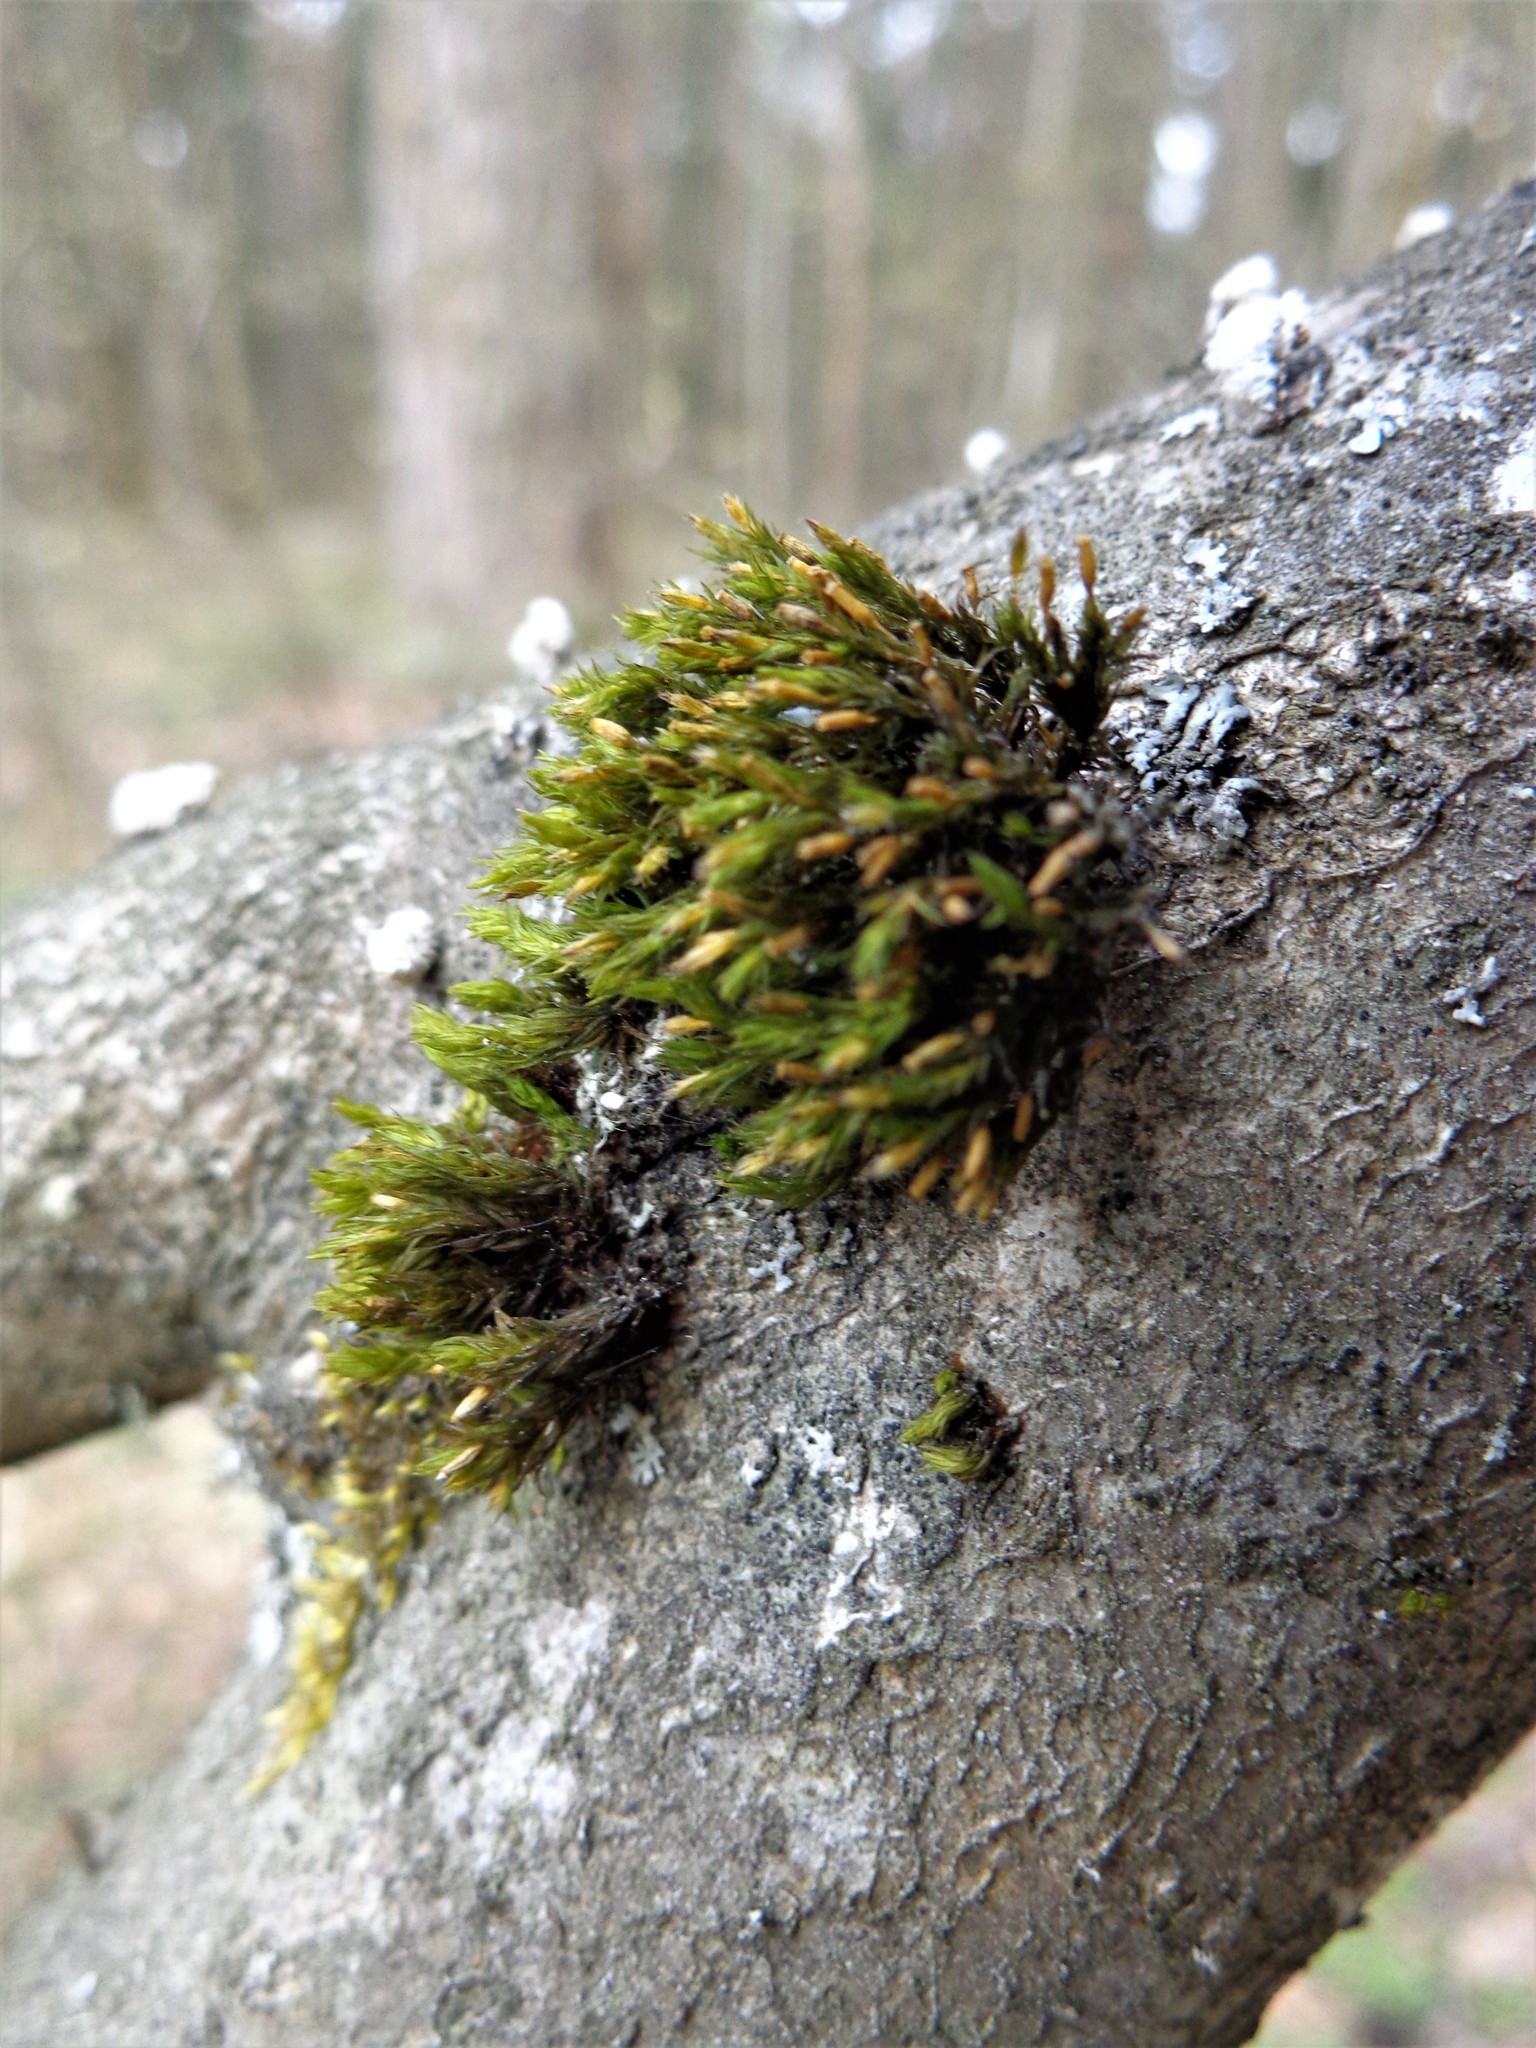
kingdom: Plantae
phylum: Bryophyta
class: Bryopsida
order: Orthotrichales
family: Orthotrichaceae
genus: Lewinskya
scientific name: Lewinskya speciosa
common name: Showy bristle moss
